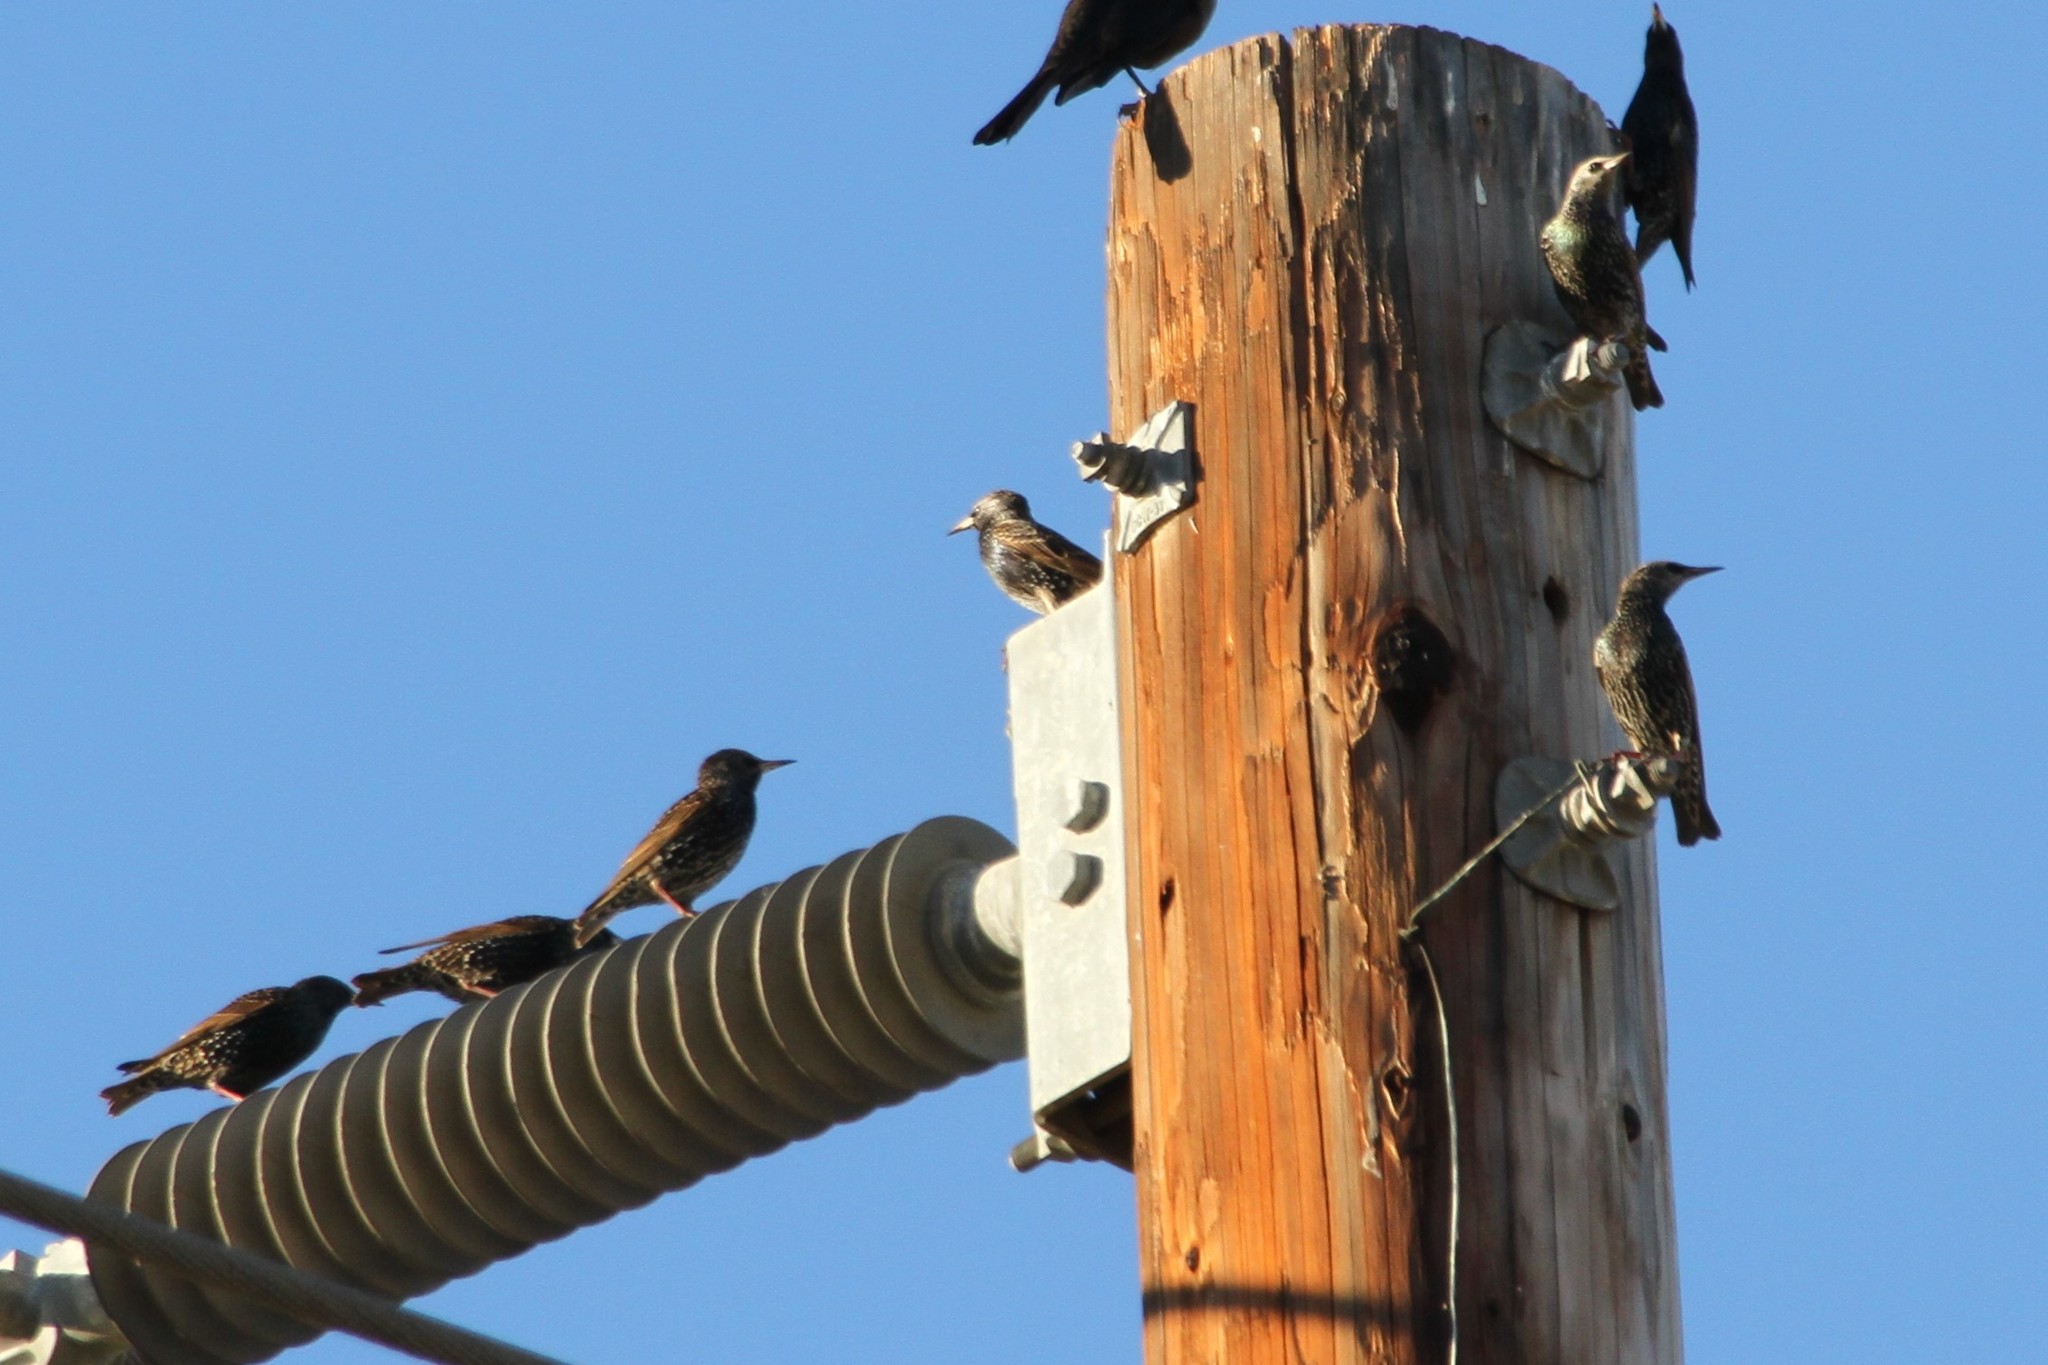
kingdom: Animalia
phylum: Chordata
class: Aves
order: Passeriformes
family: Sturnidae
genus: Sturnus
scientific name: Sturnus vulgaris
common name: Common starling
